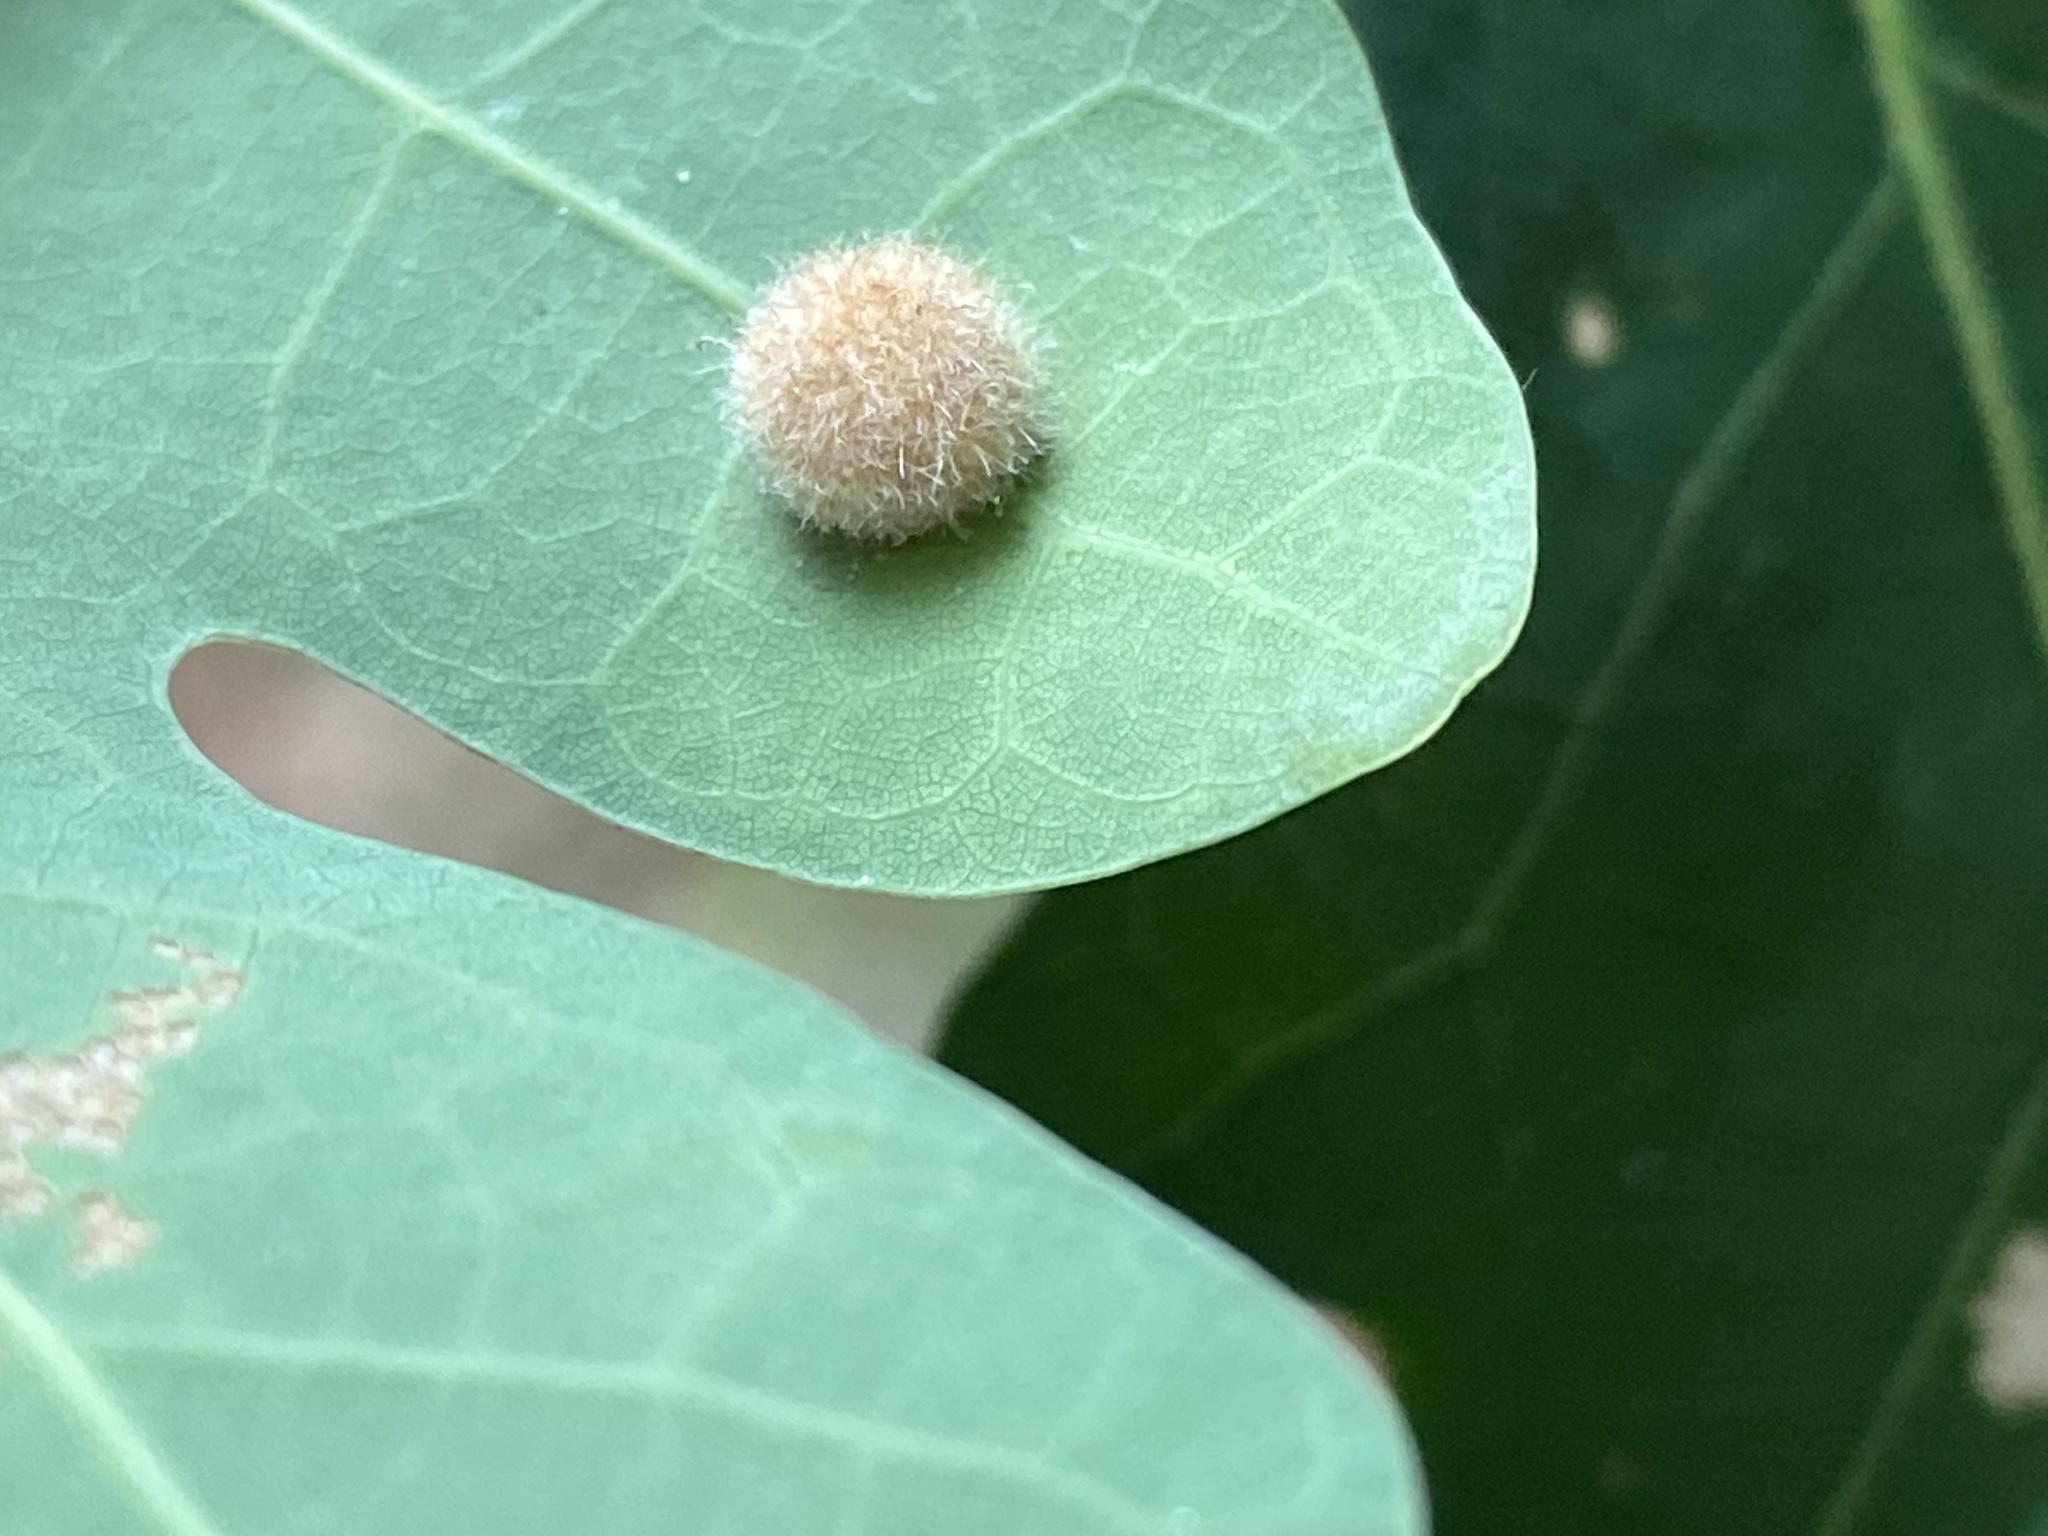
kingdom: Animalia
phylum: Arthropoda
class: Insecta
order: Hymenoptera
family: Cynipidae
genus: Philonix
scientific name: Philonix fulvicollis
